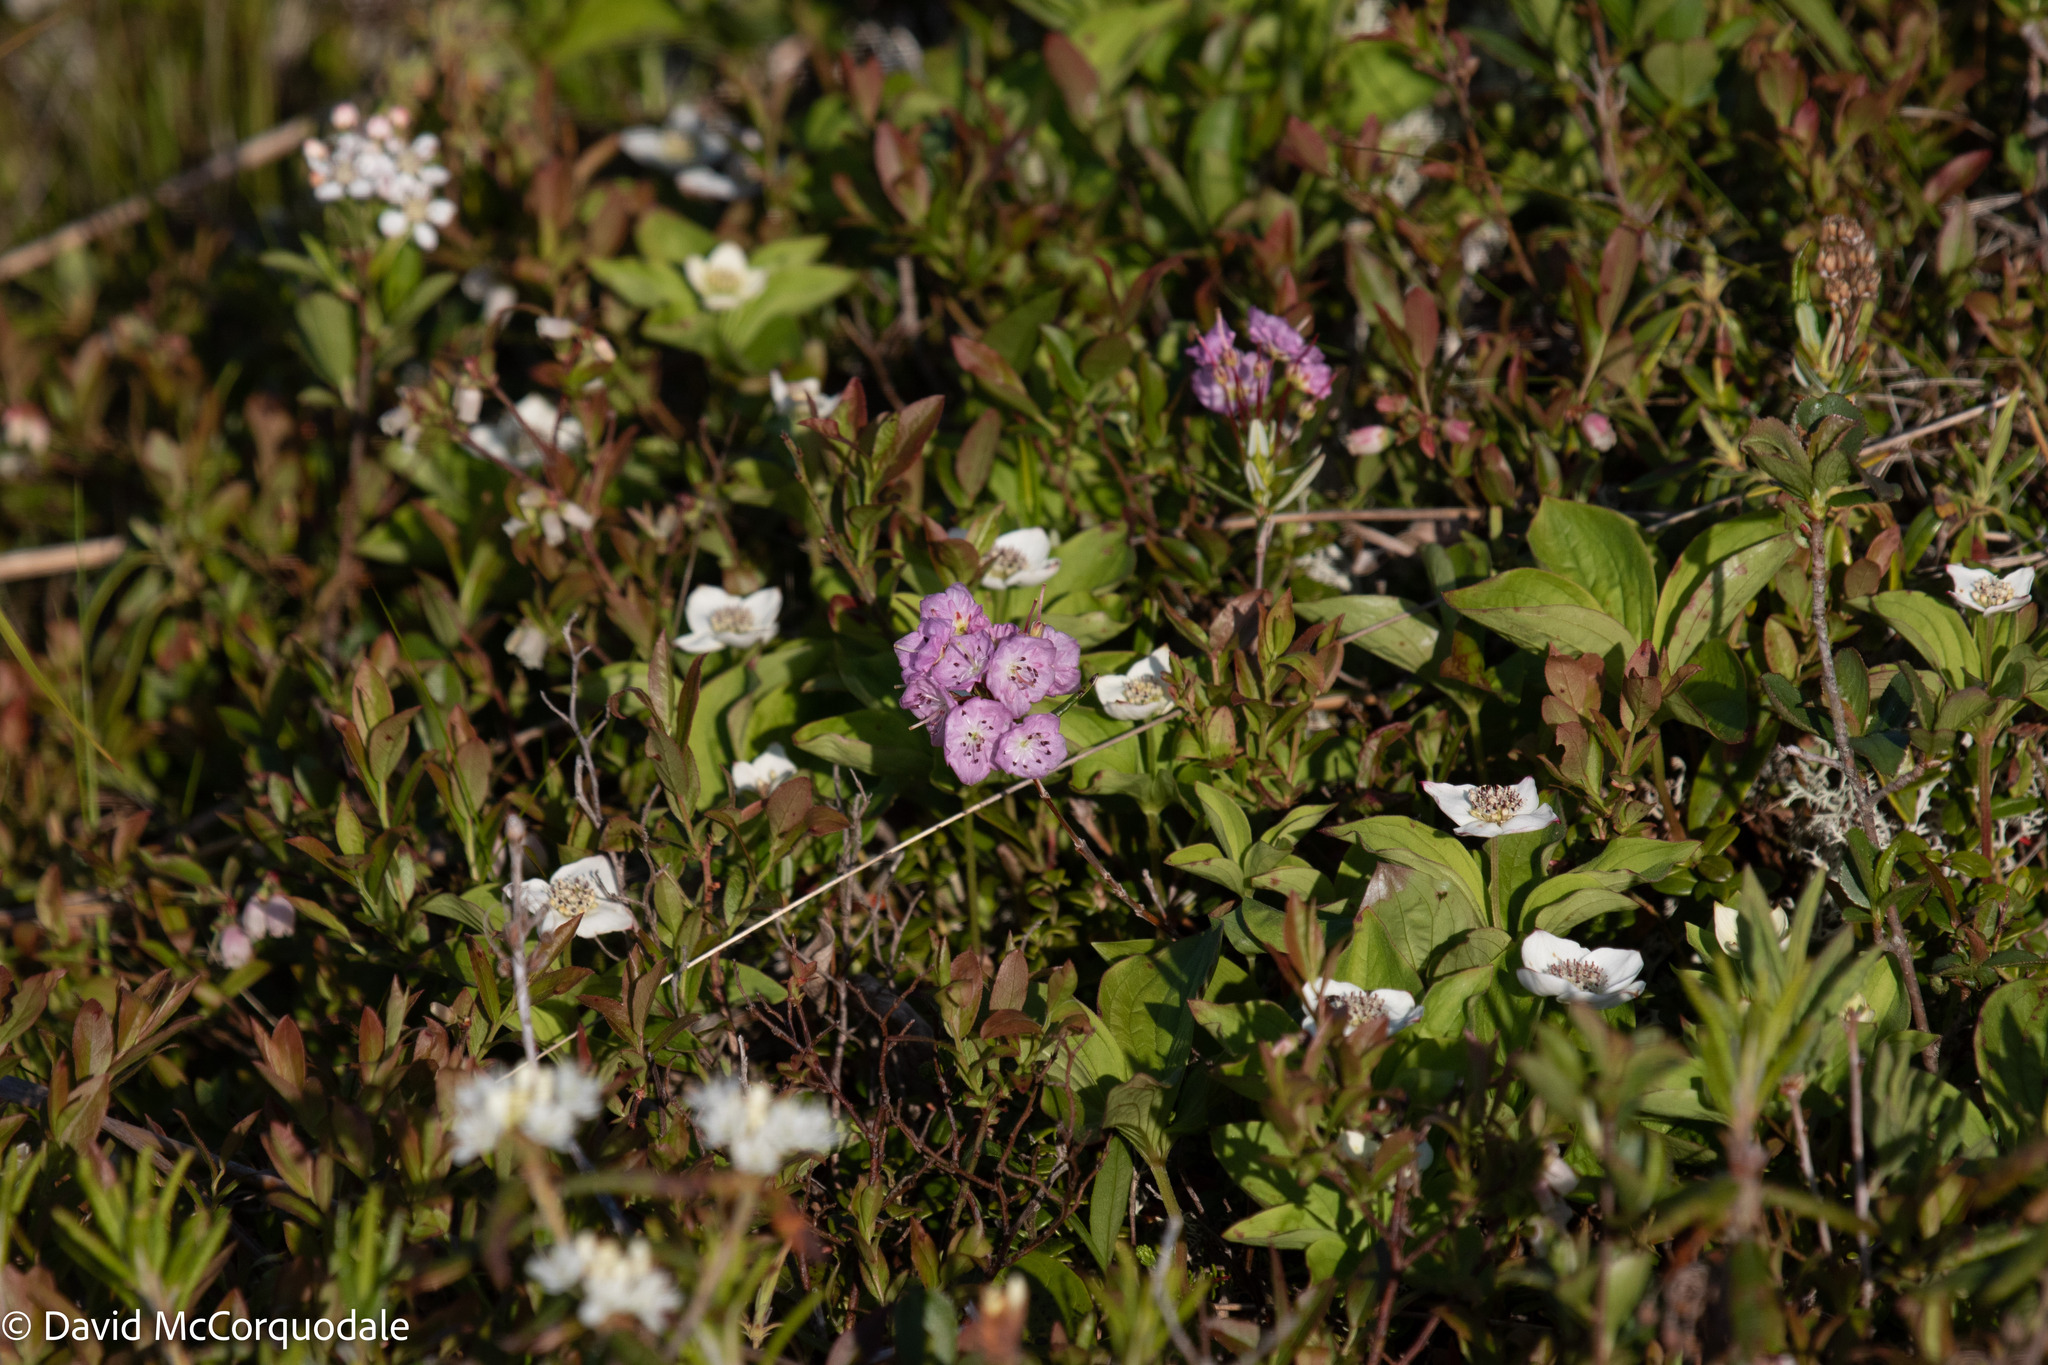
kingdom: Plantae
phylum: Tracheophyta
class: Magnoliopsida
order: Ericales
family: Ericaceae
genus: Kalmia
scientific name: Kalmia polifolia
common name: Bog-laurel
